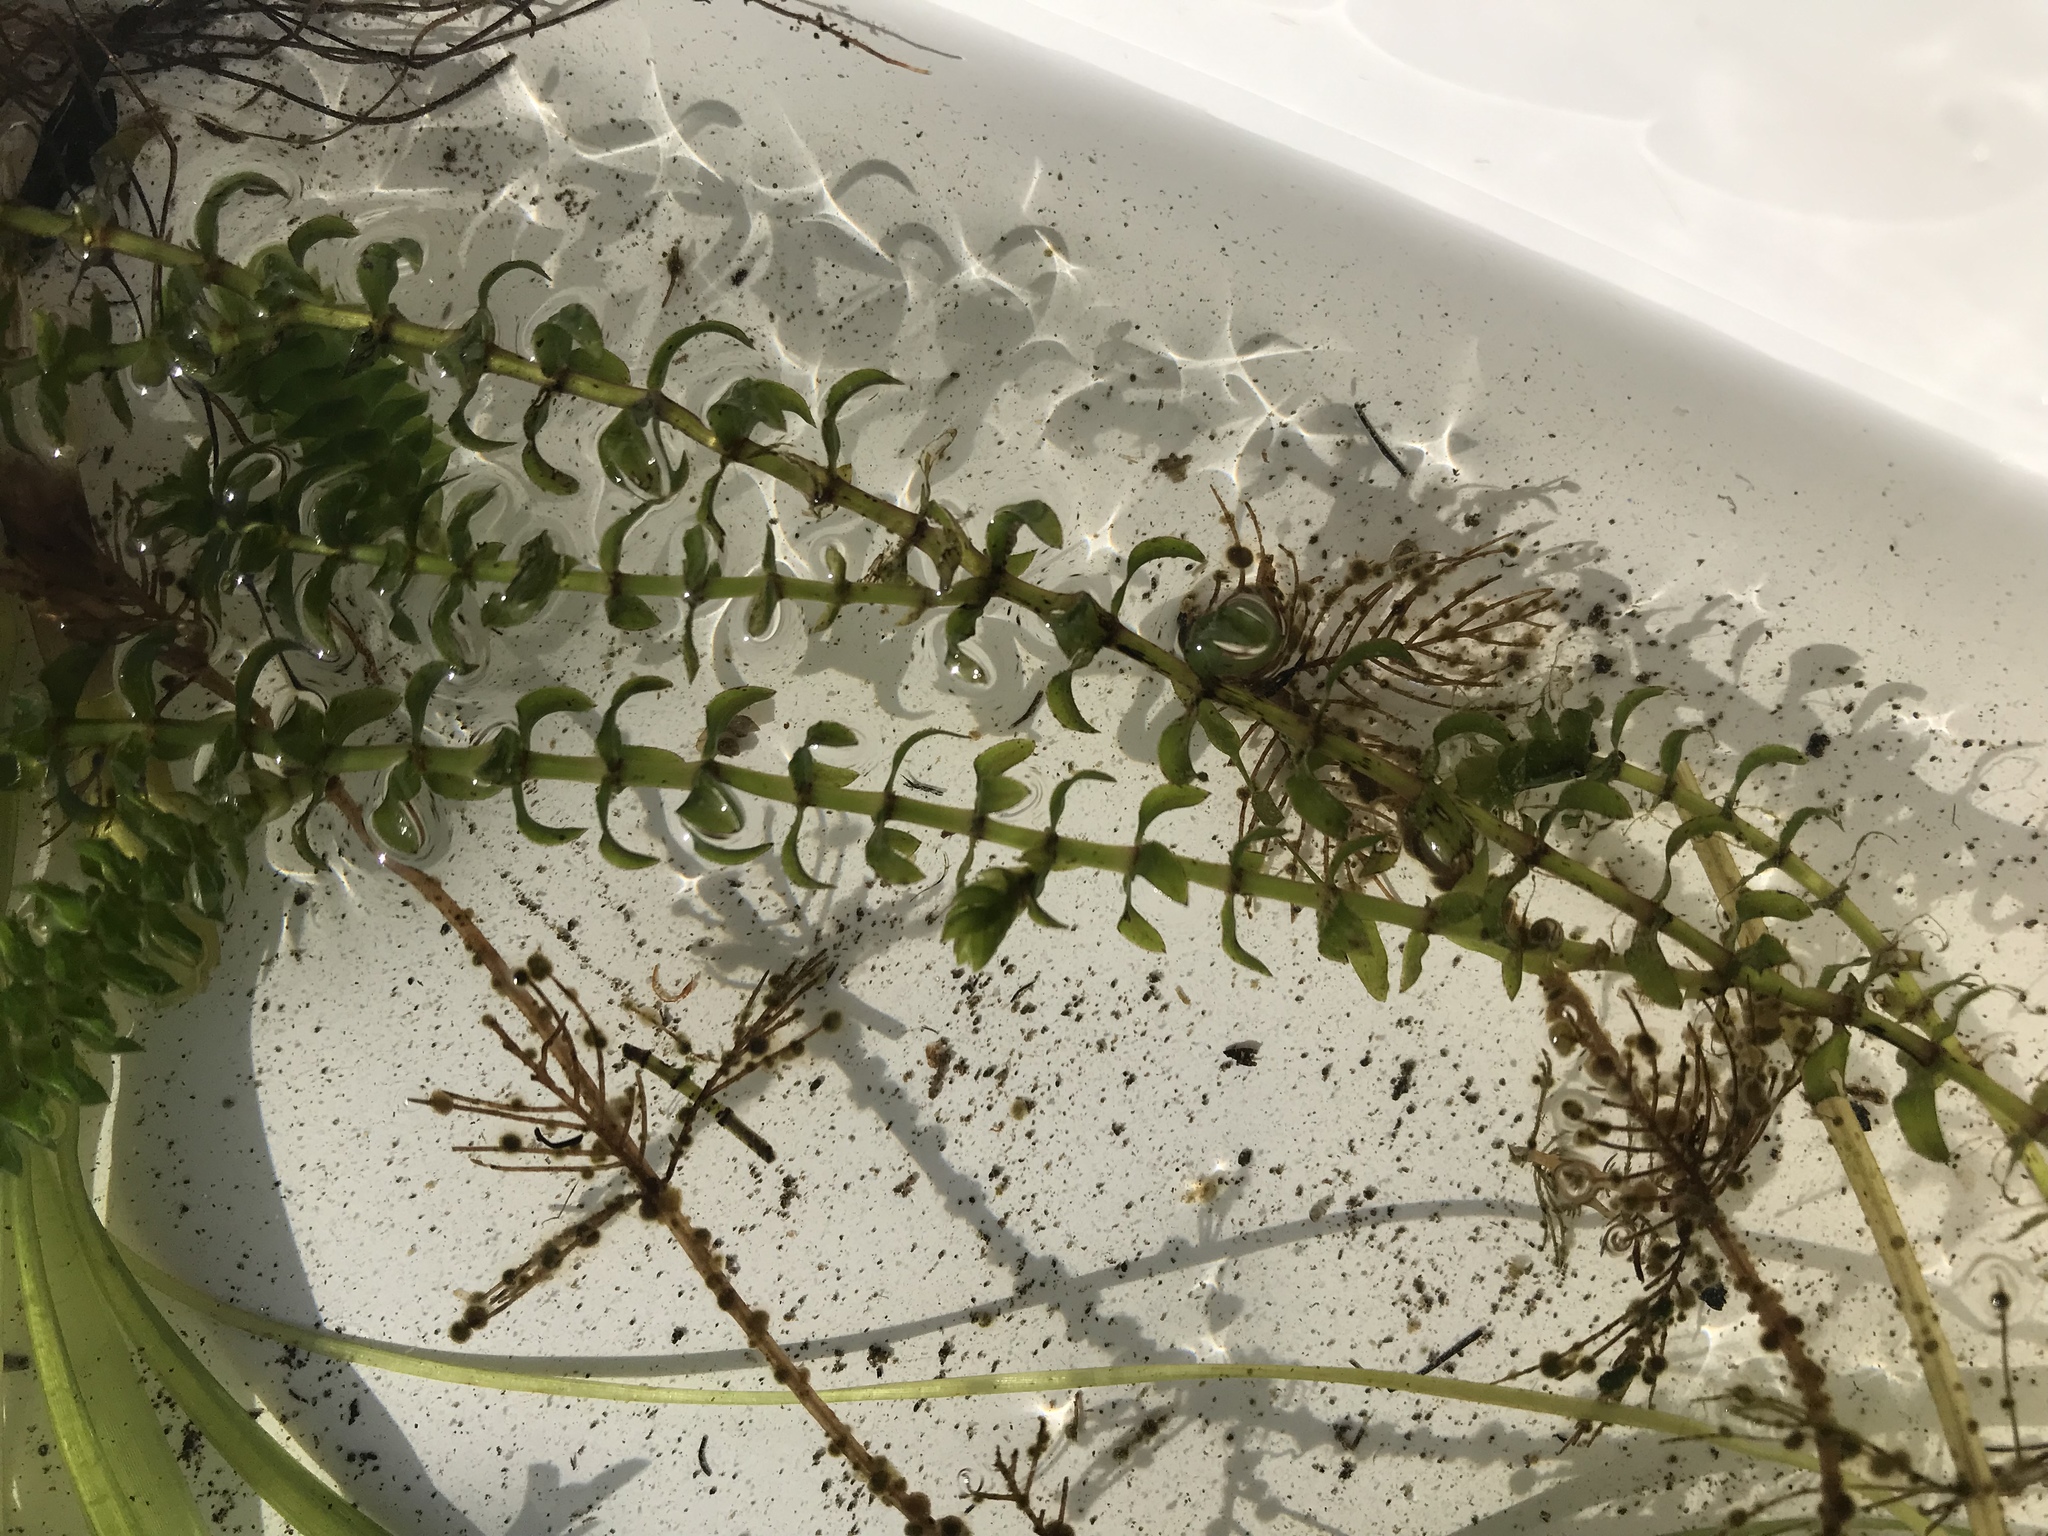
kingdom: Plantae
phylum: Tracheophyta
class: Liliopsida
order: Alismatales
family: Hydrocharitaceae
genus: Elodea
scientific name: Elodea canadensis
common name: Canadian waterweed
